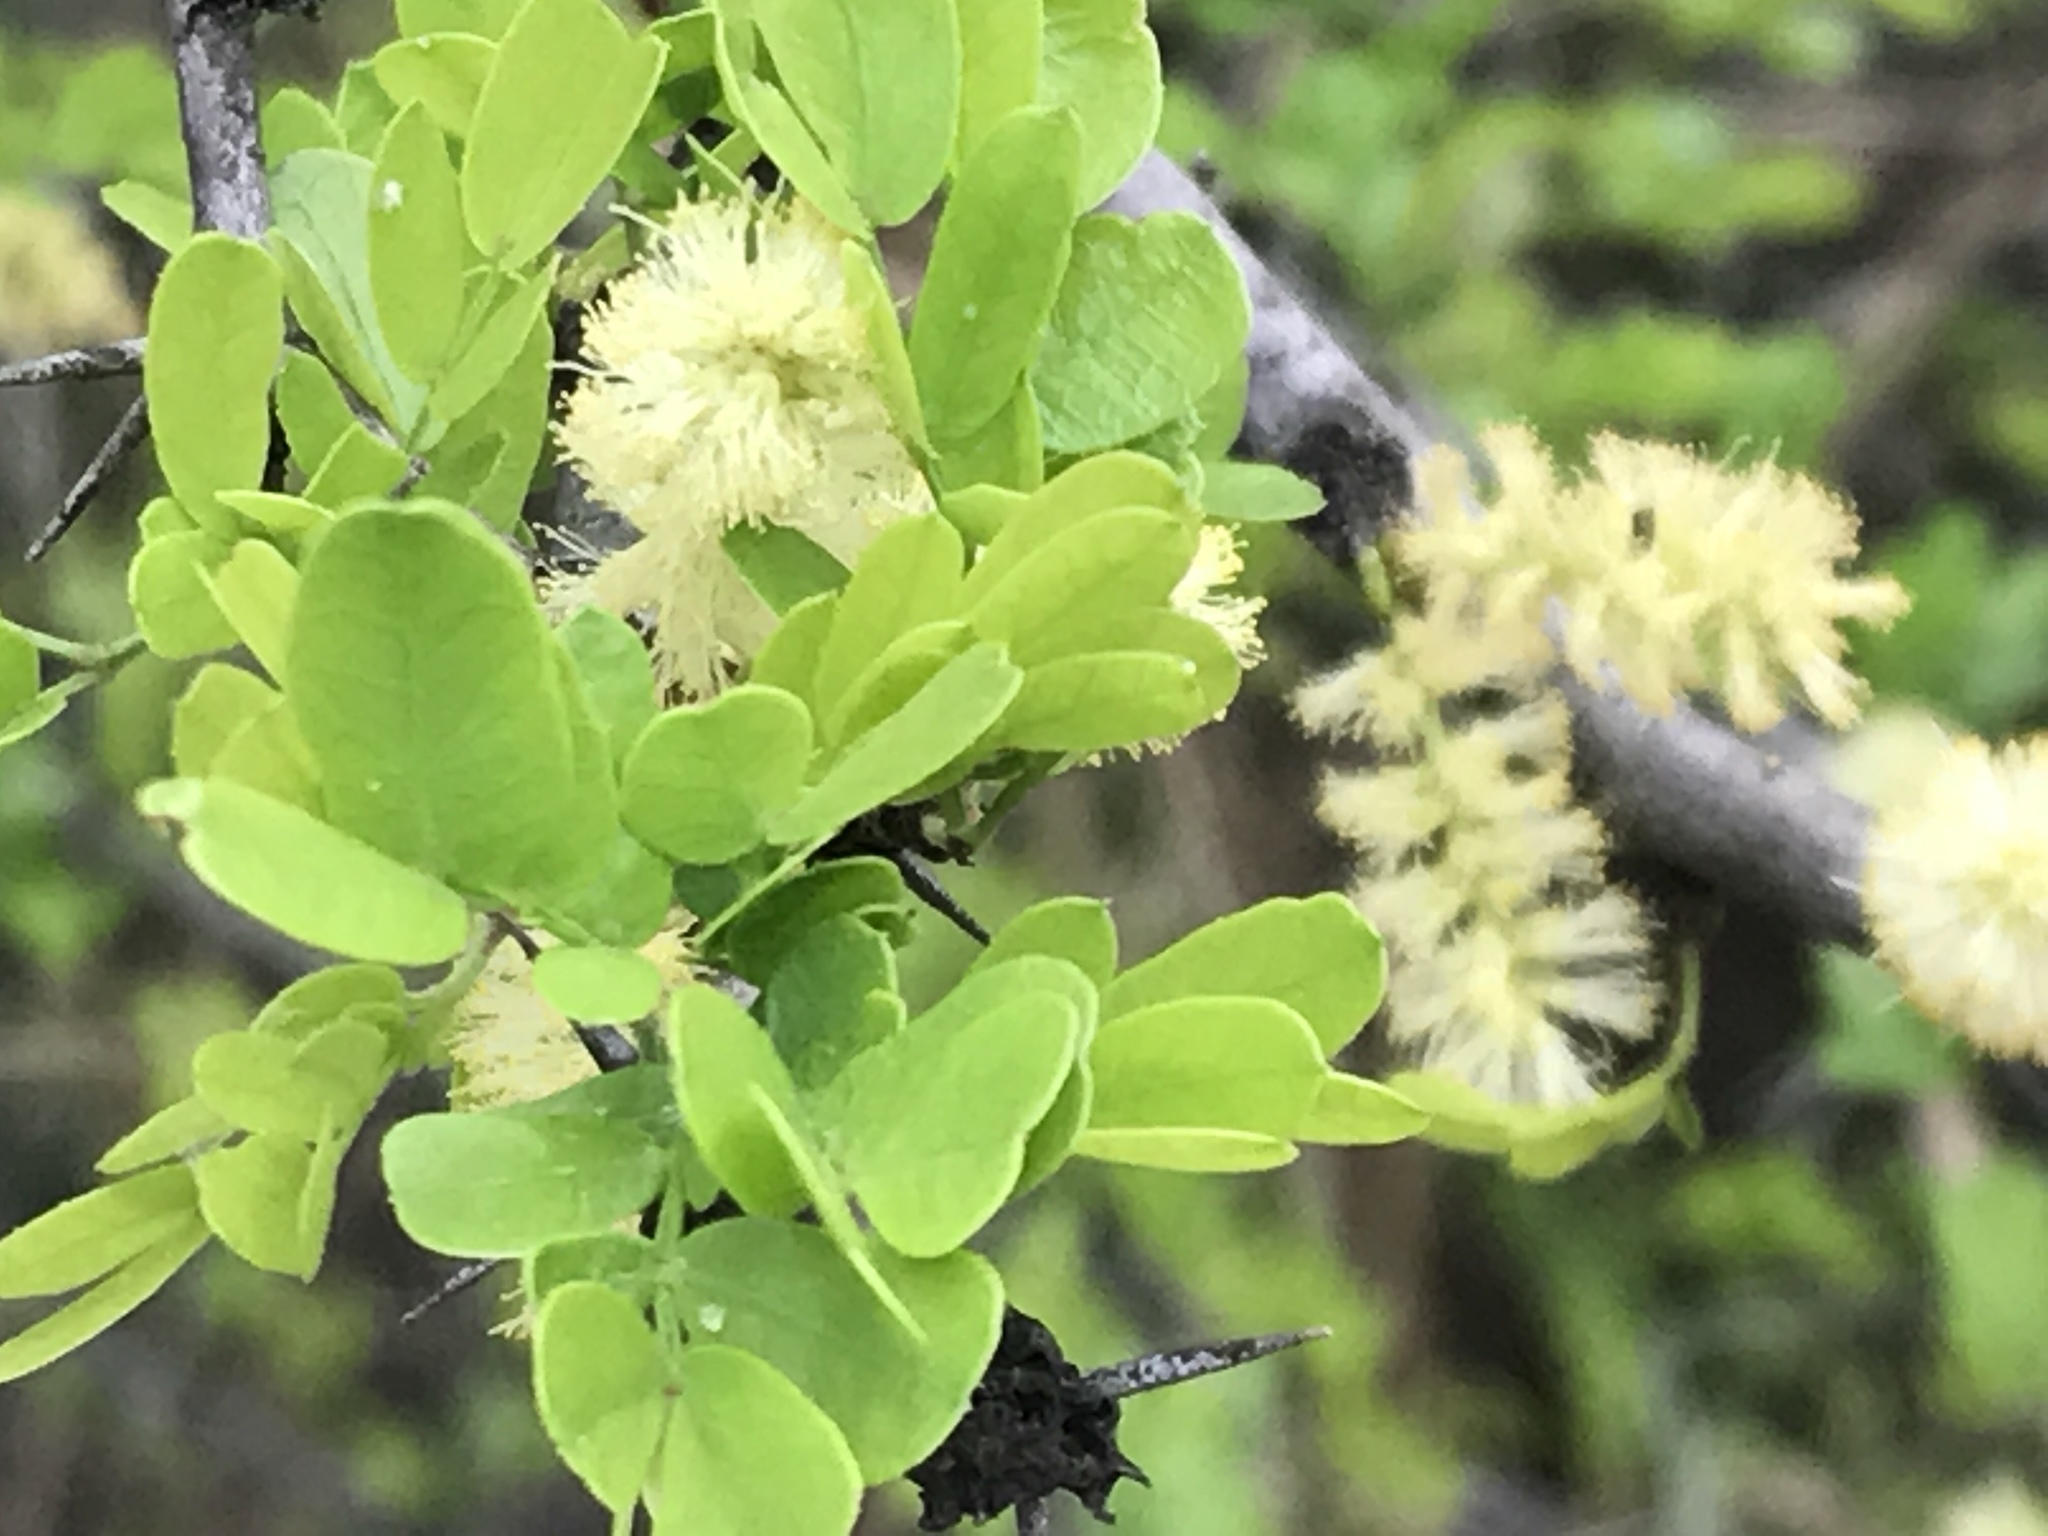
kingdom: Plantae
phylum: Tracheophyta
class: Magnoliopsida
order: Fabales
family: Fabaceae
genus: Vachellia
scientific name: Vachellia rigidula
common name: Blackbrush
